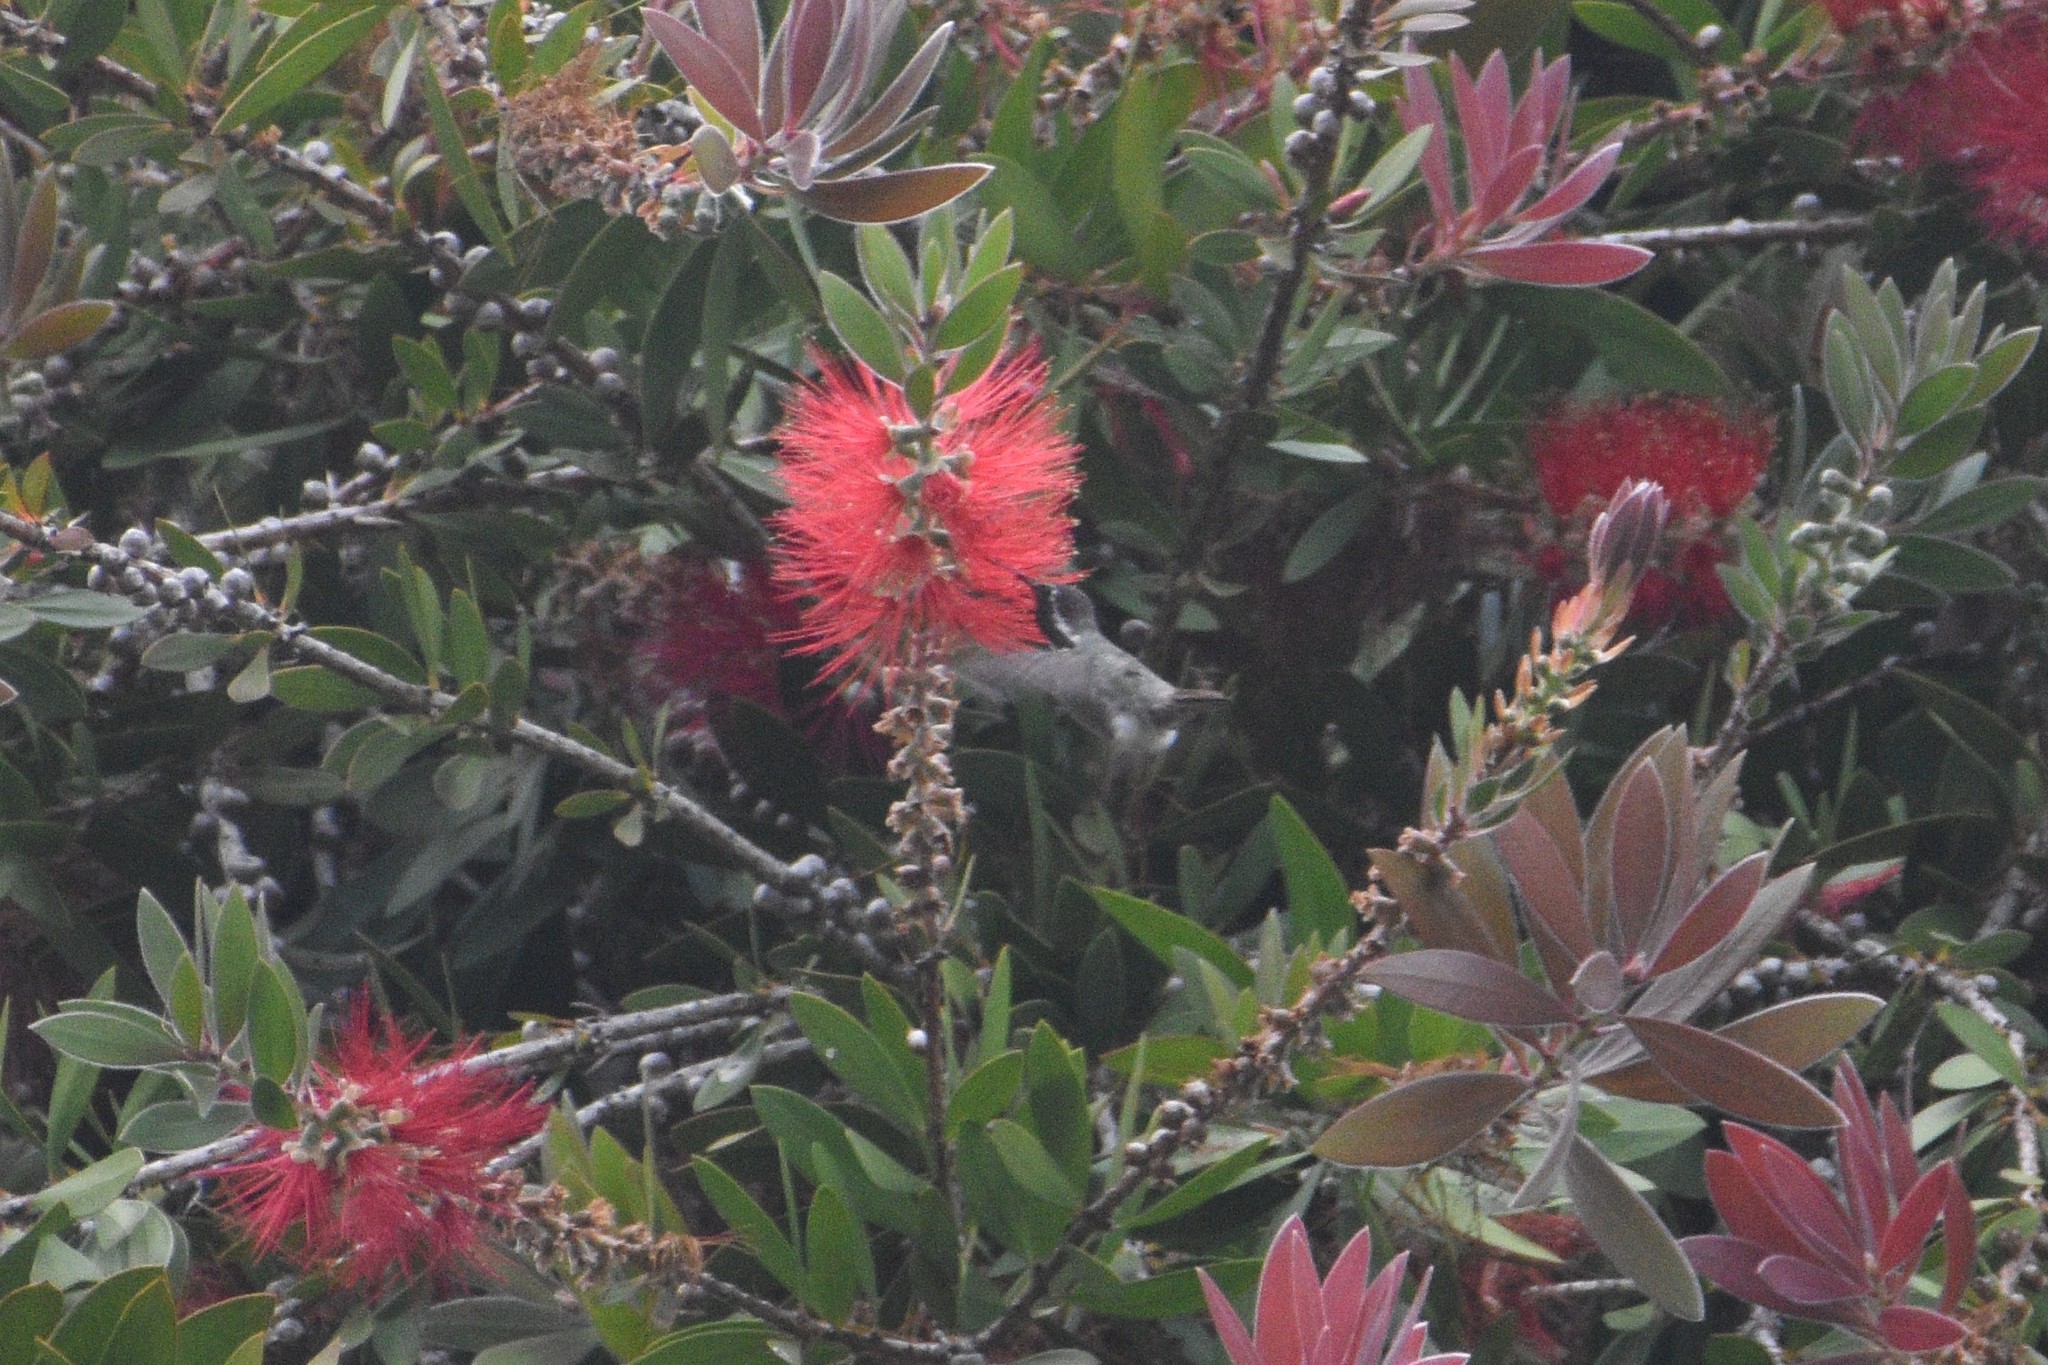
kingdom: Animalia
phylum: Chordata
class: Aves
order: Apodiformes
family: Trochilidae
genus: Calypte
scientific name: Calypte costae
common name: Costa's hummingbird
